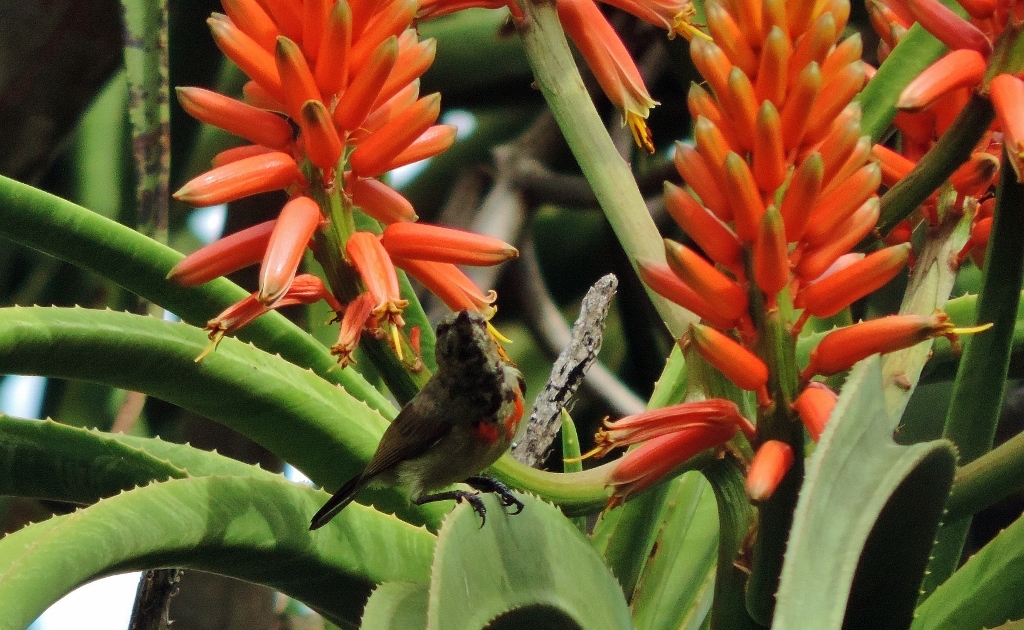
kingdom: Animalia
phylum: Chordata
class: Aves
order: Passeriformes
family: Nectariniidae
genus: Cinnyris
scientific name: Cinnyris manoensis
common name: Eastern miombo sunbird
